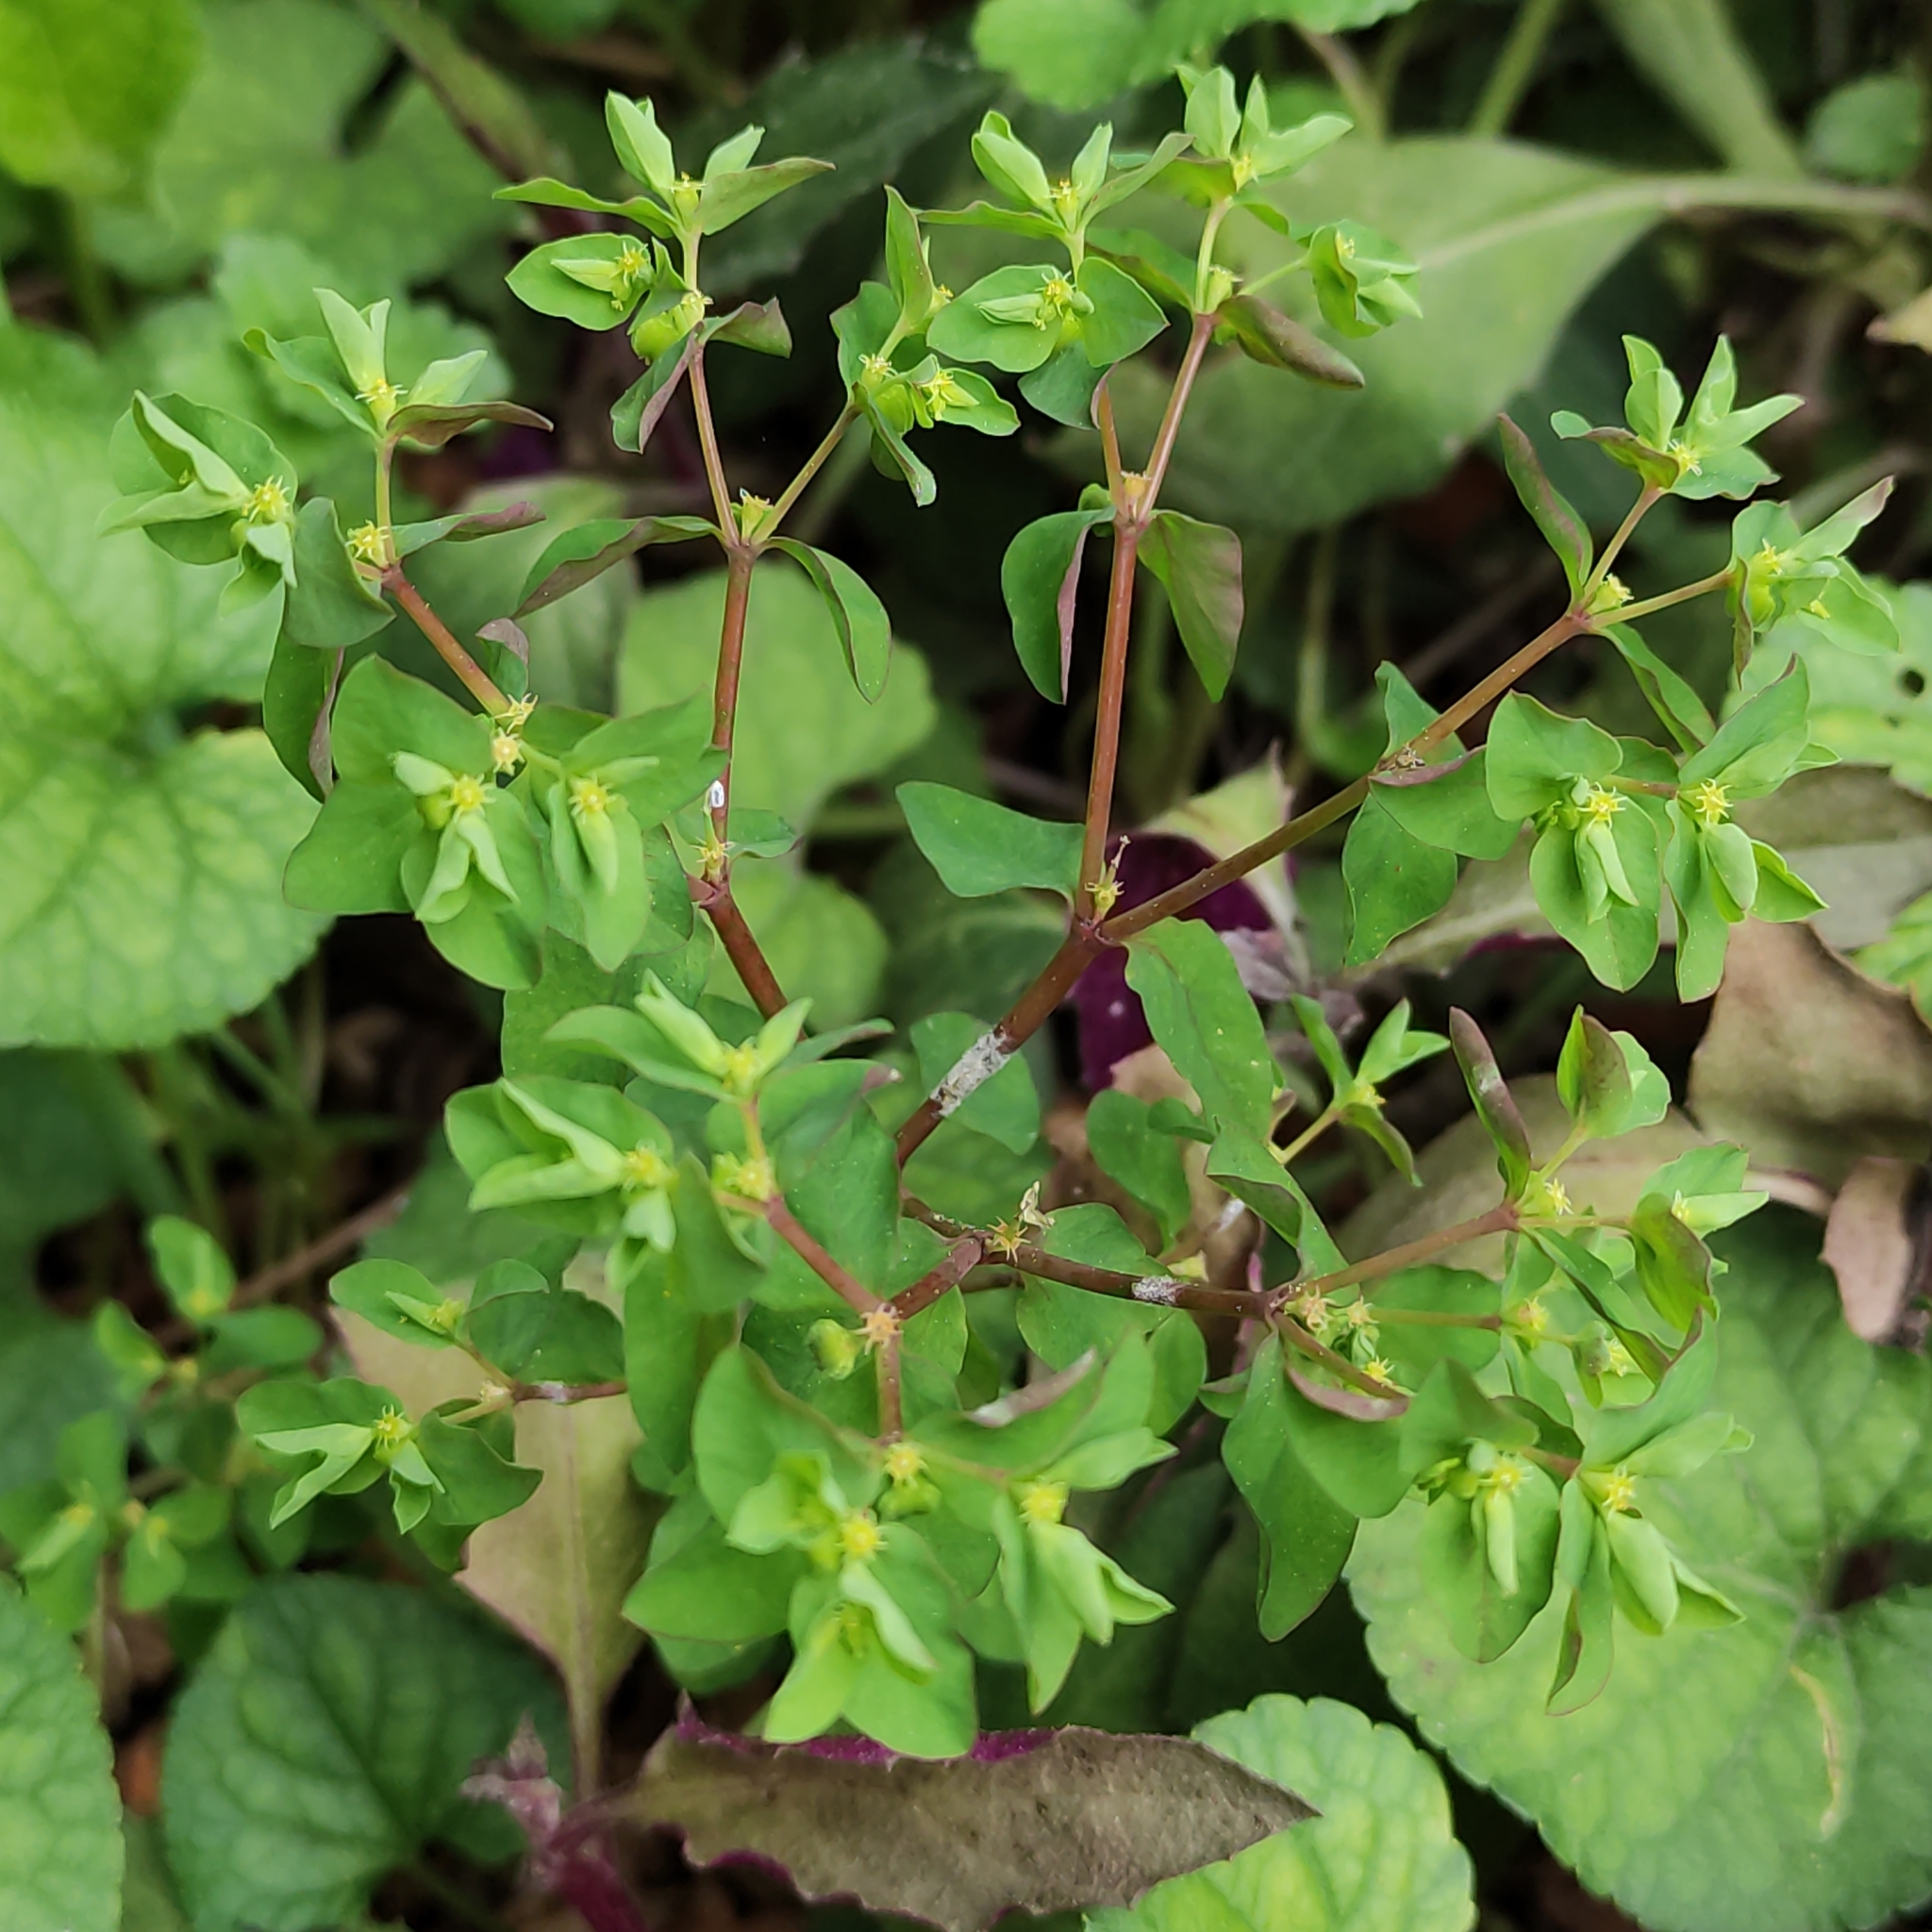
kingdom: Plantae
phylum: Tracheophyta
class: Magnoliopsida
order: Malpighiales
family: Euphorbiaceae
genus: Euphorbia
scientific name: Euphorbia peplus
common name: Petty spurge
